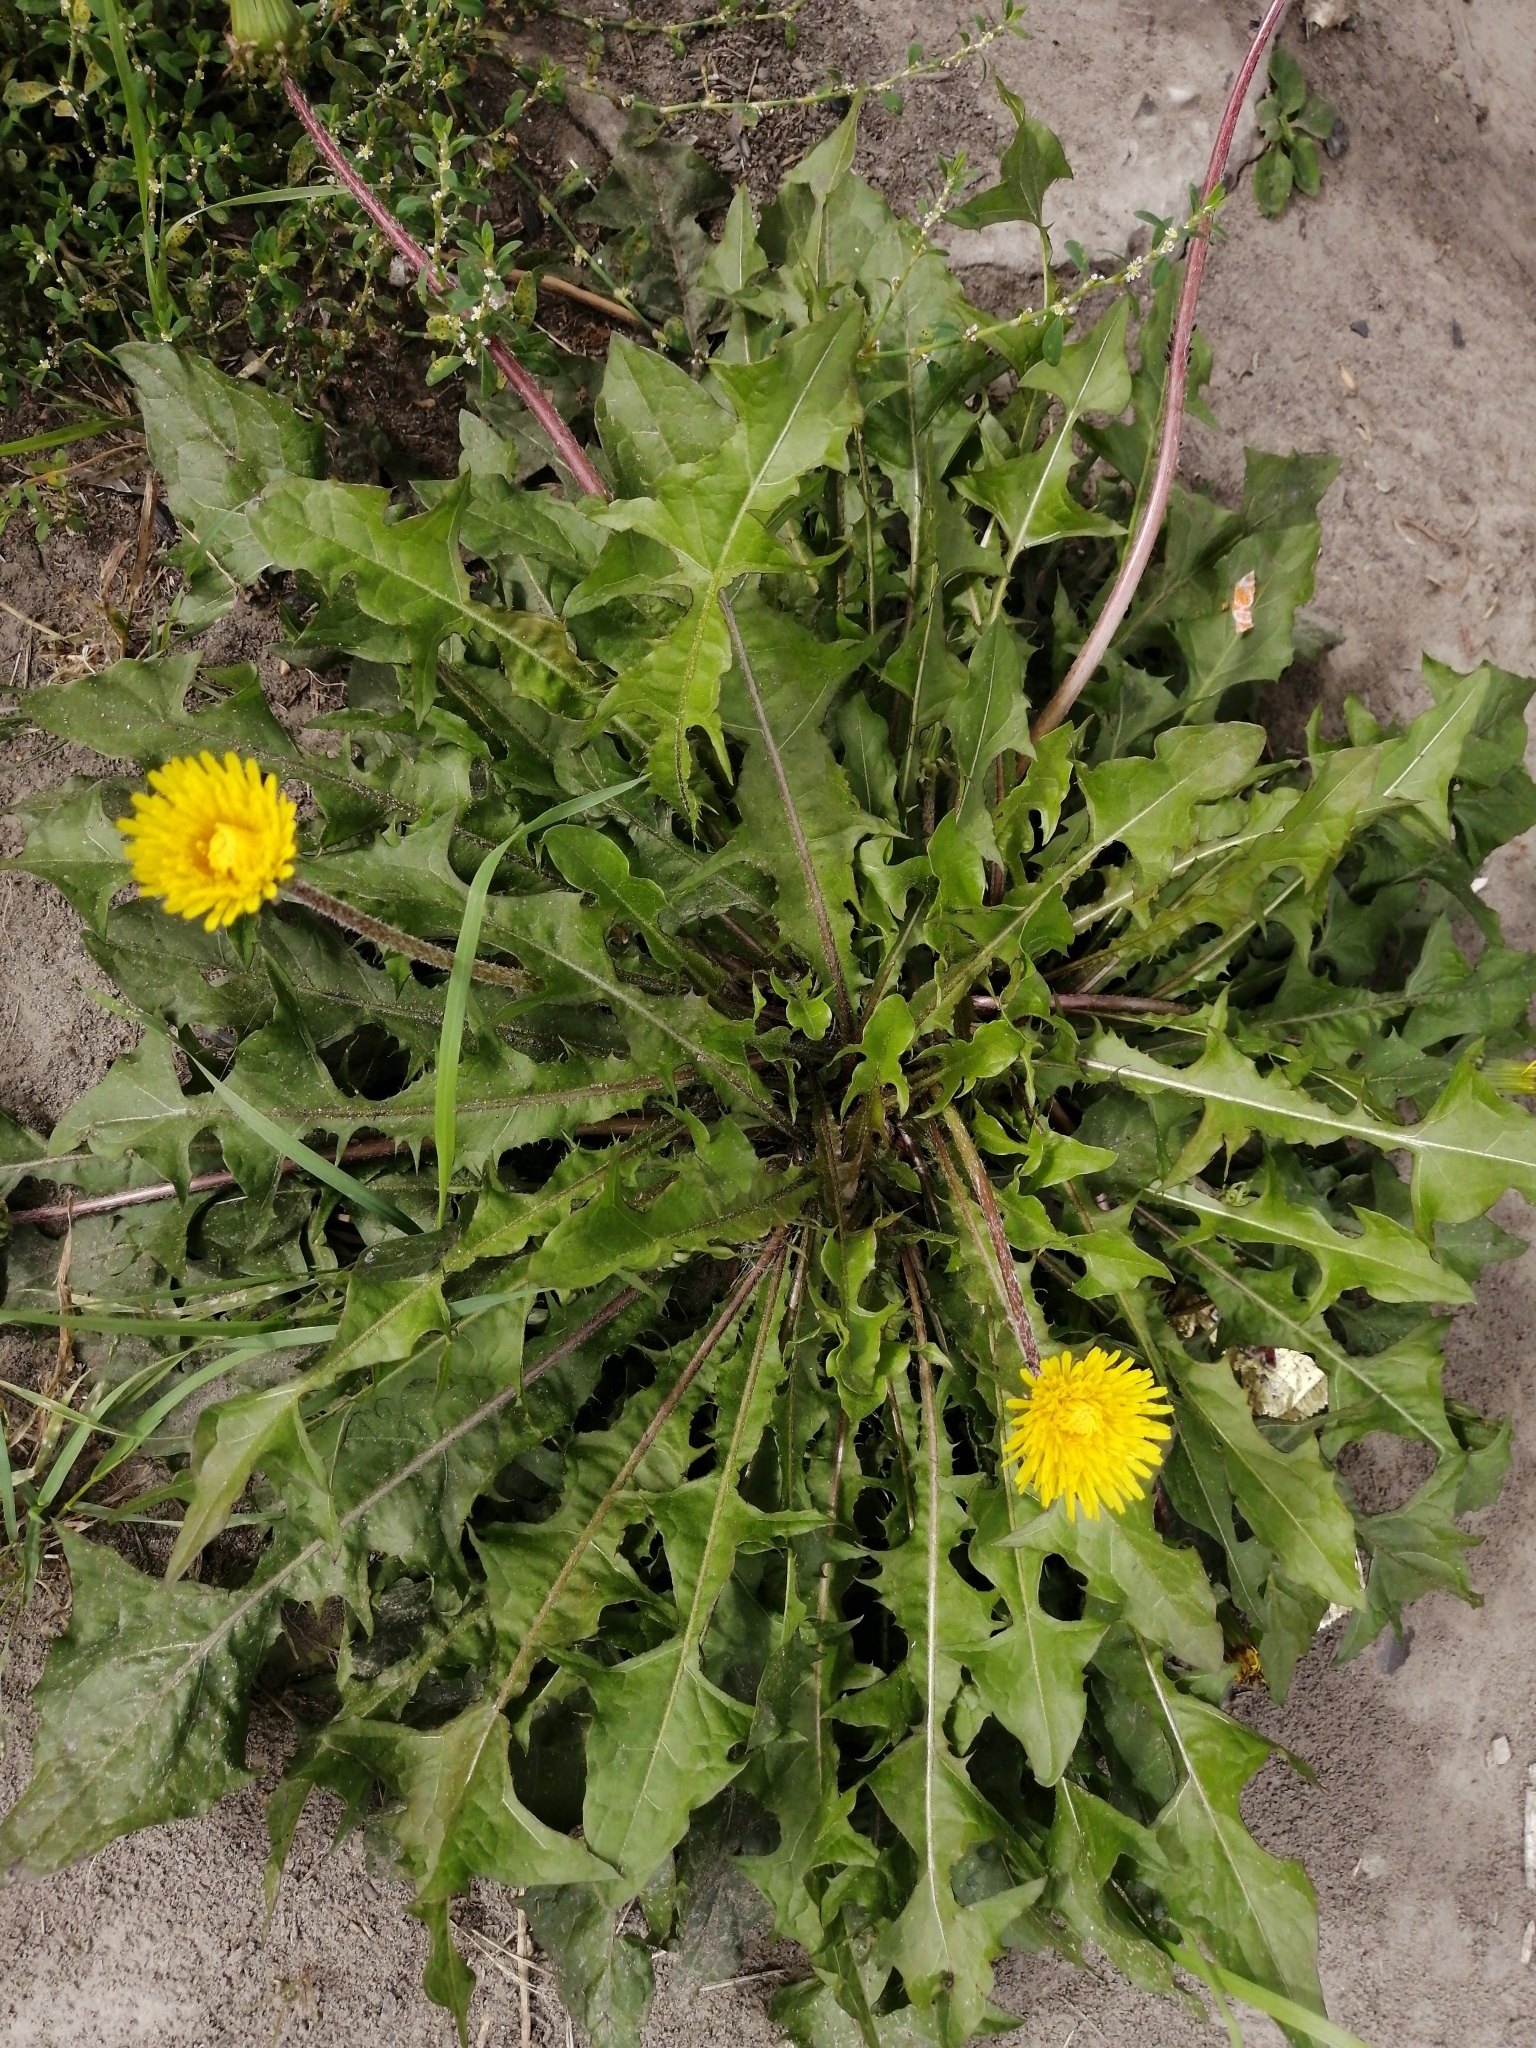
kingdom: Plantae
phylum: Tracheophyta
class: Magnoliopsida
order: Asterales
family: Asteraceae
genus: Taraxacum
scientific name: Taraxacum officinale
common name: Common dandelion
